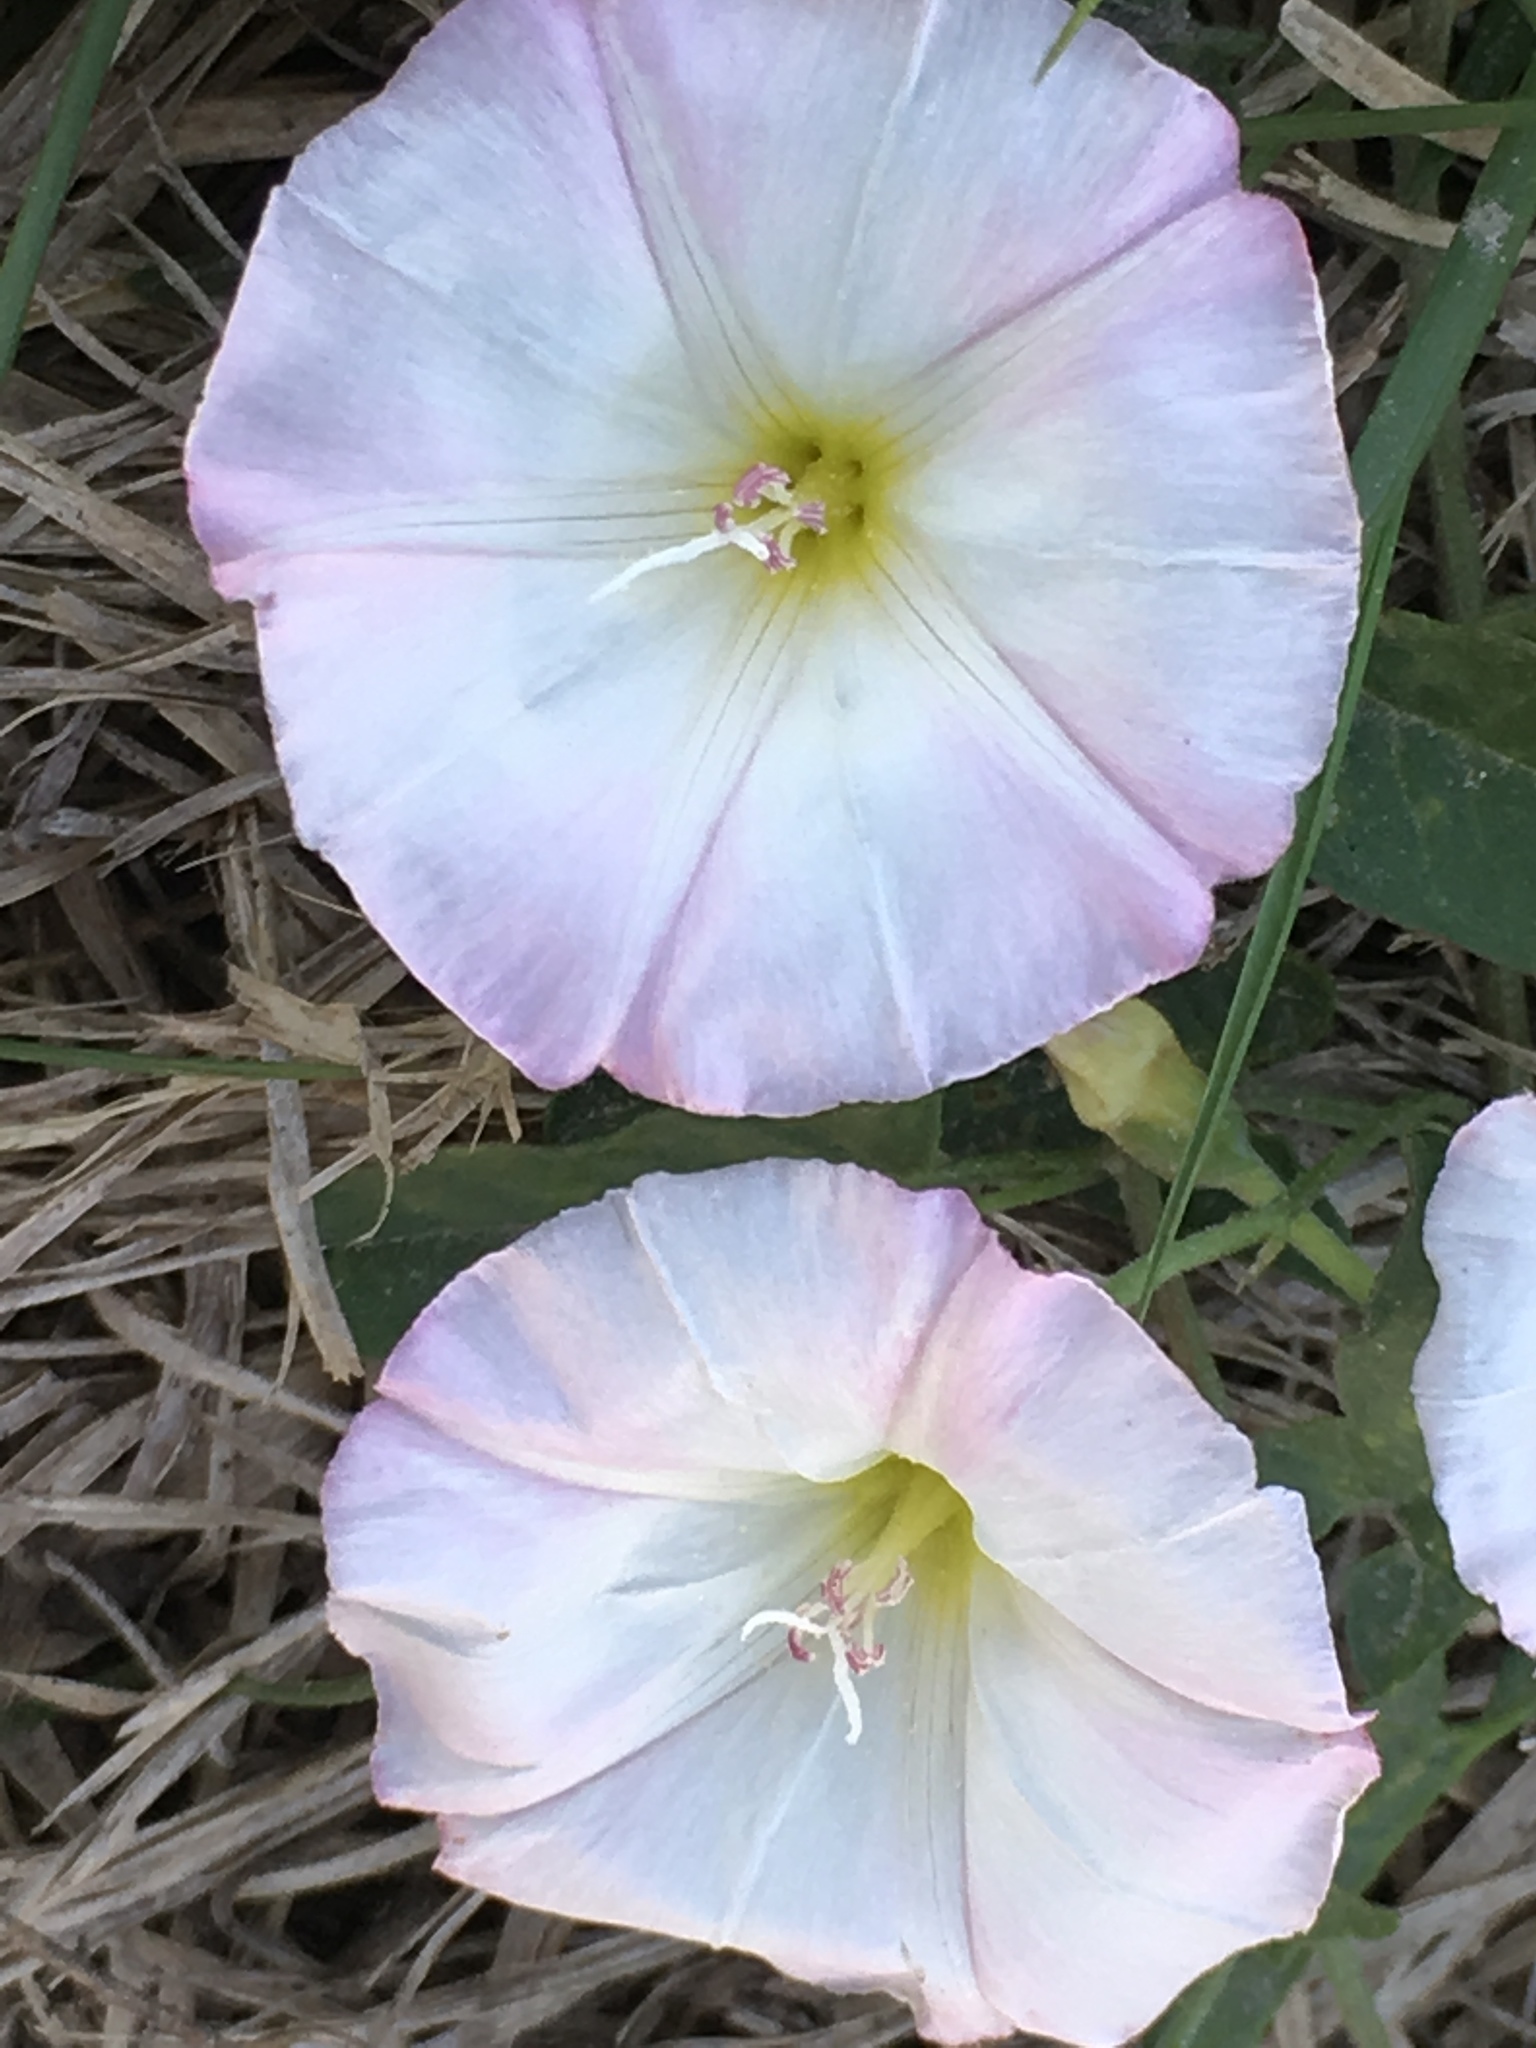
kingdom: Plantae
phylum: Tracheophyta
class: Magnoliopsida
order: Solanales
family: Convolvulaceae
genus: Convolvulus
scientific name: Convolvulus arvensis
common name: Field bindweed
